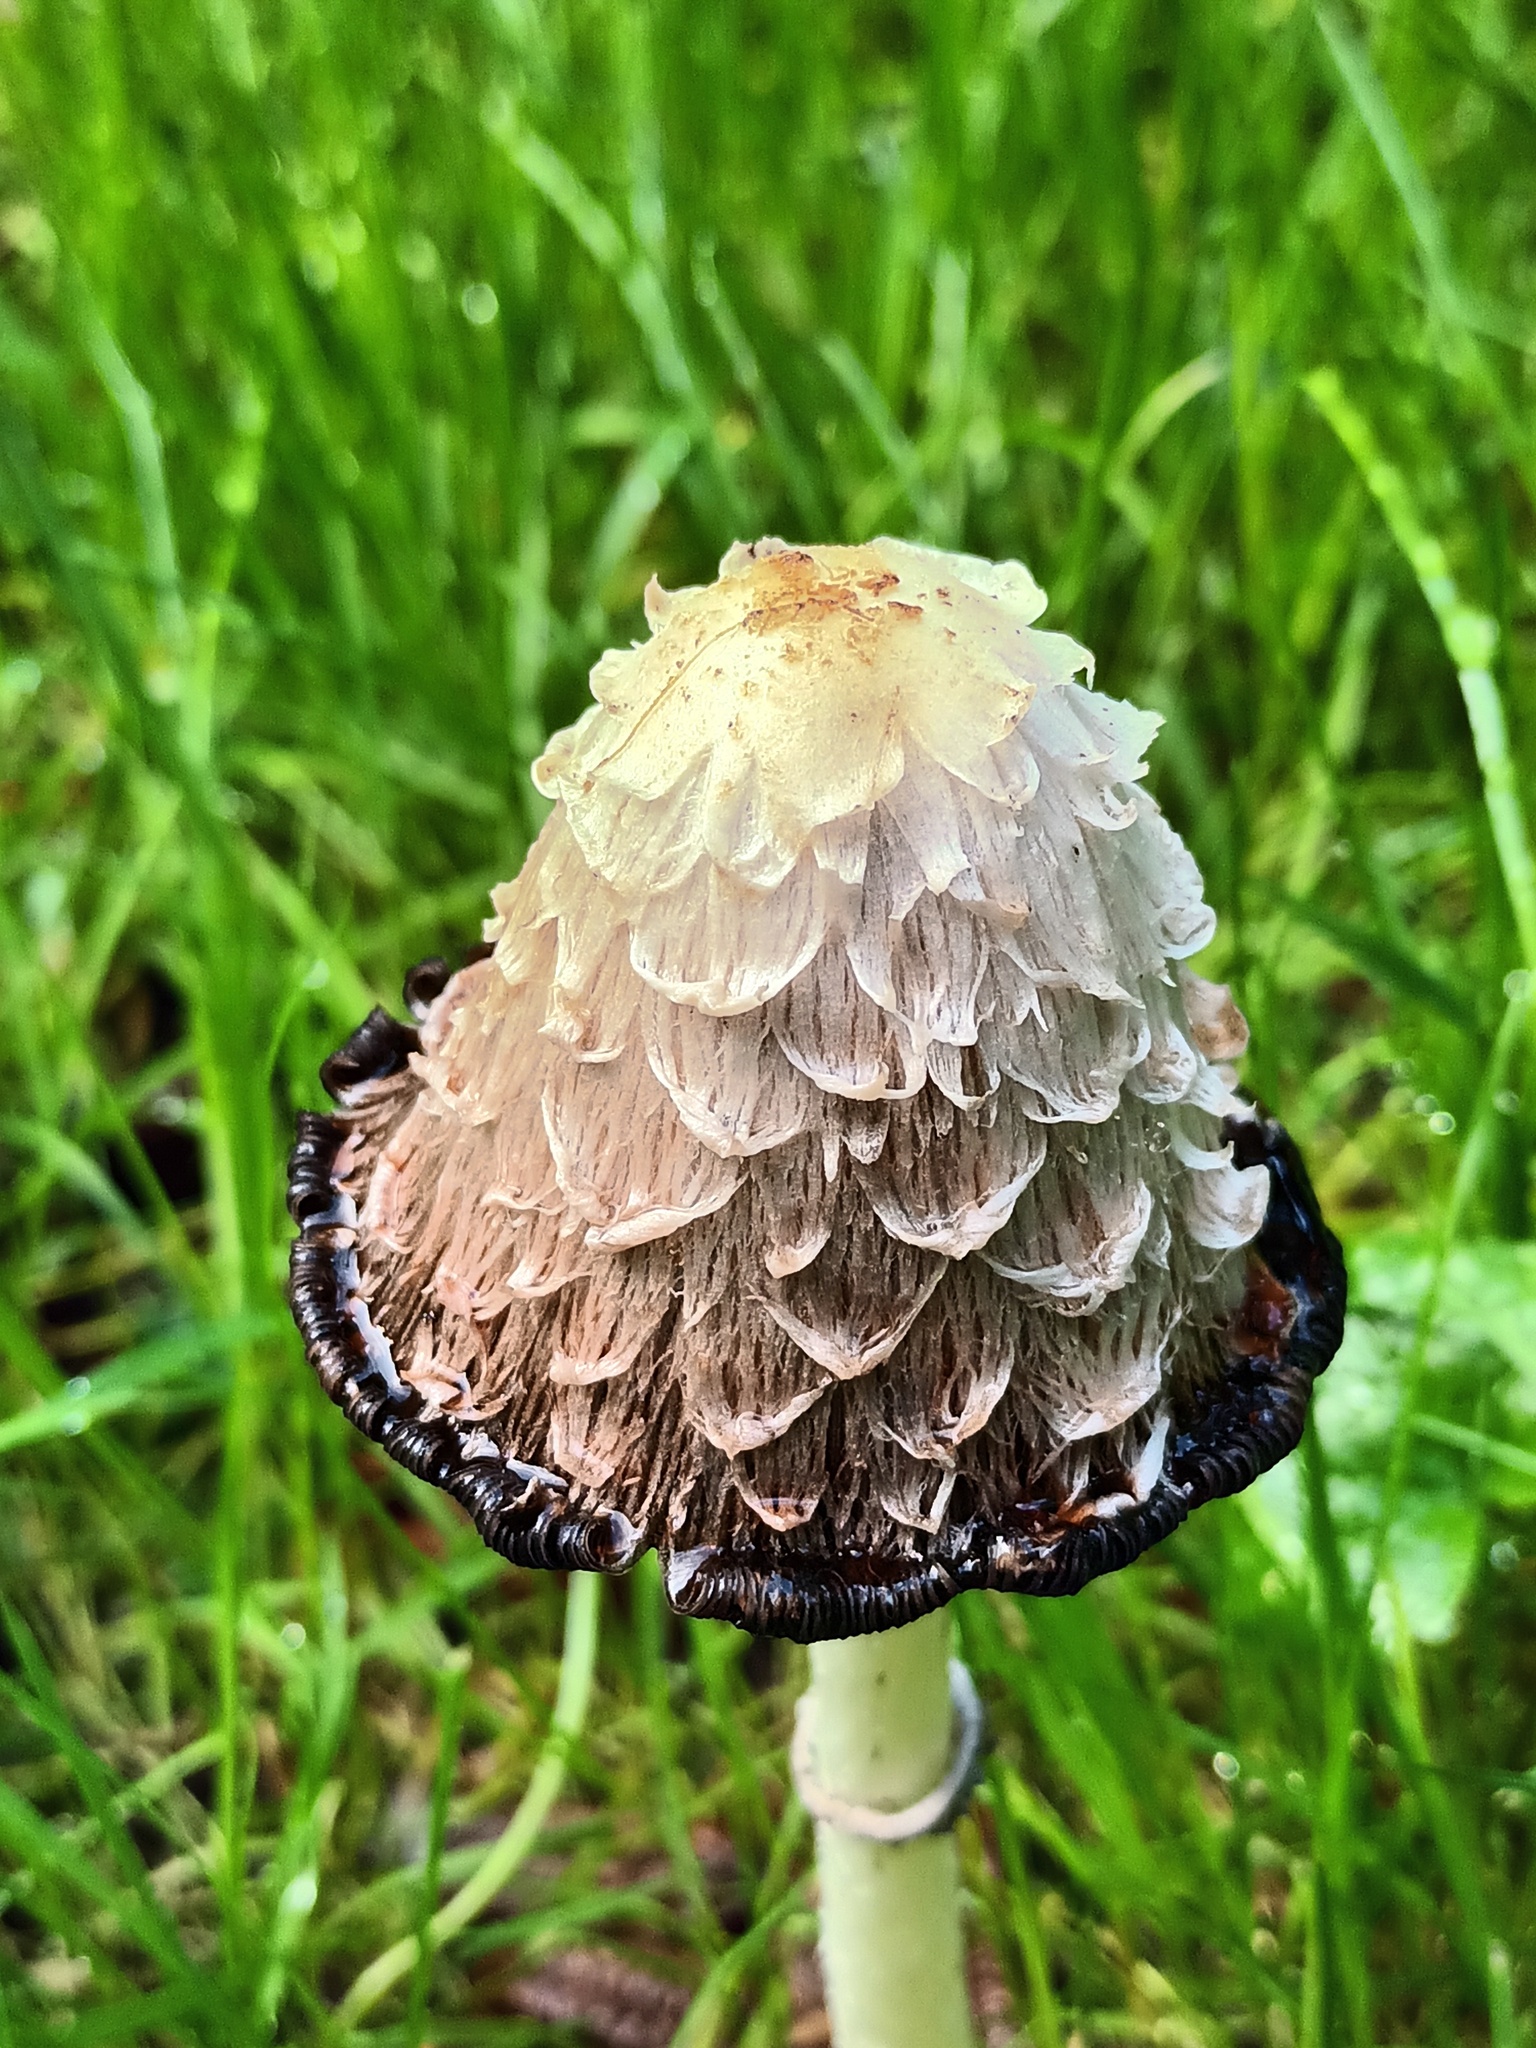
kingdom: Fungi
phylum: Basidiomycota
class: Agaricomycetes
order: Agaricales
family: Agaricaceae
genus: Coprinus
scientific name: Coprinus comatus
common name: Lawyer's wig
